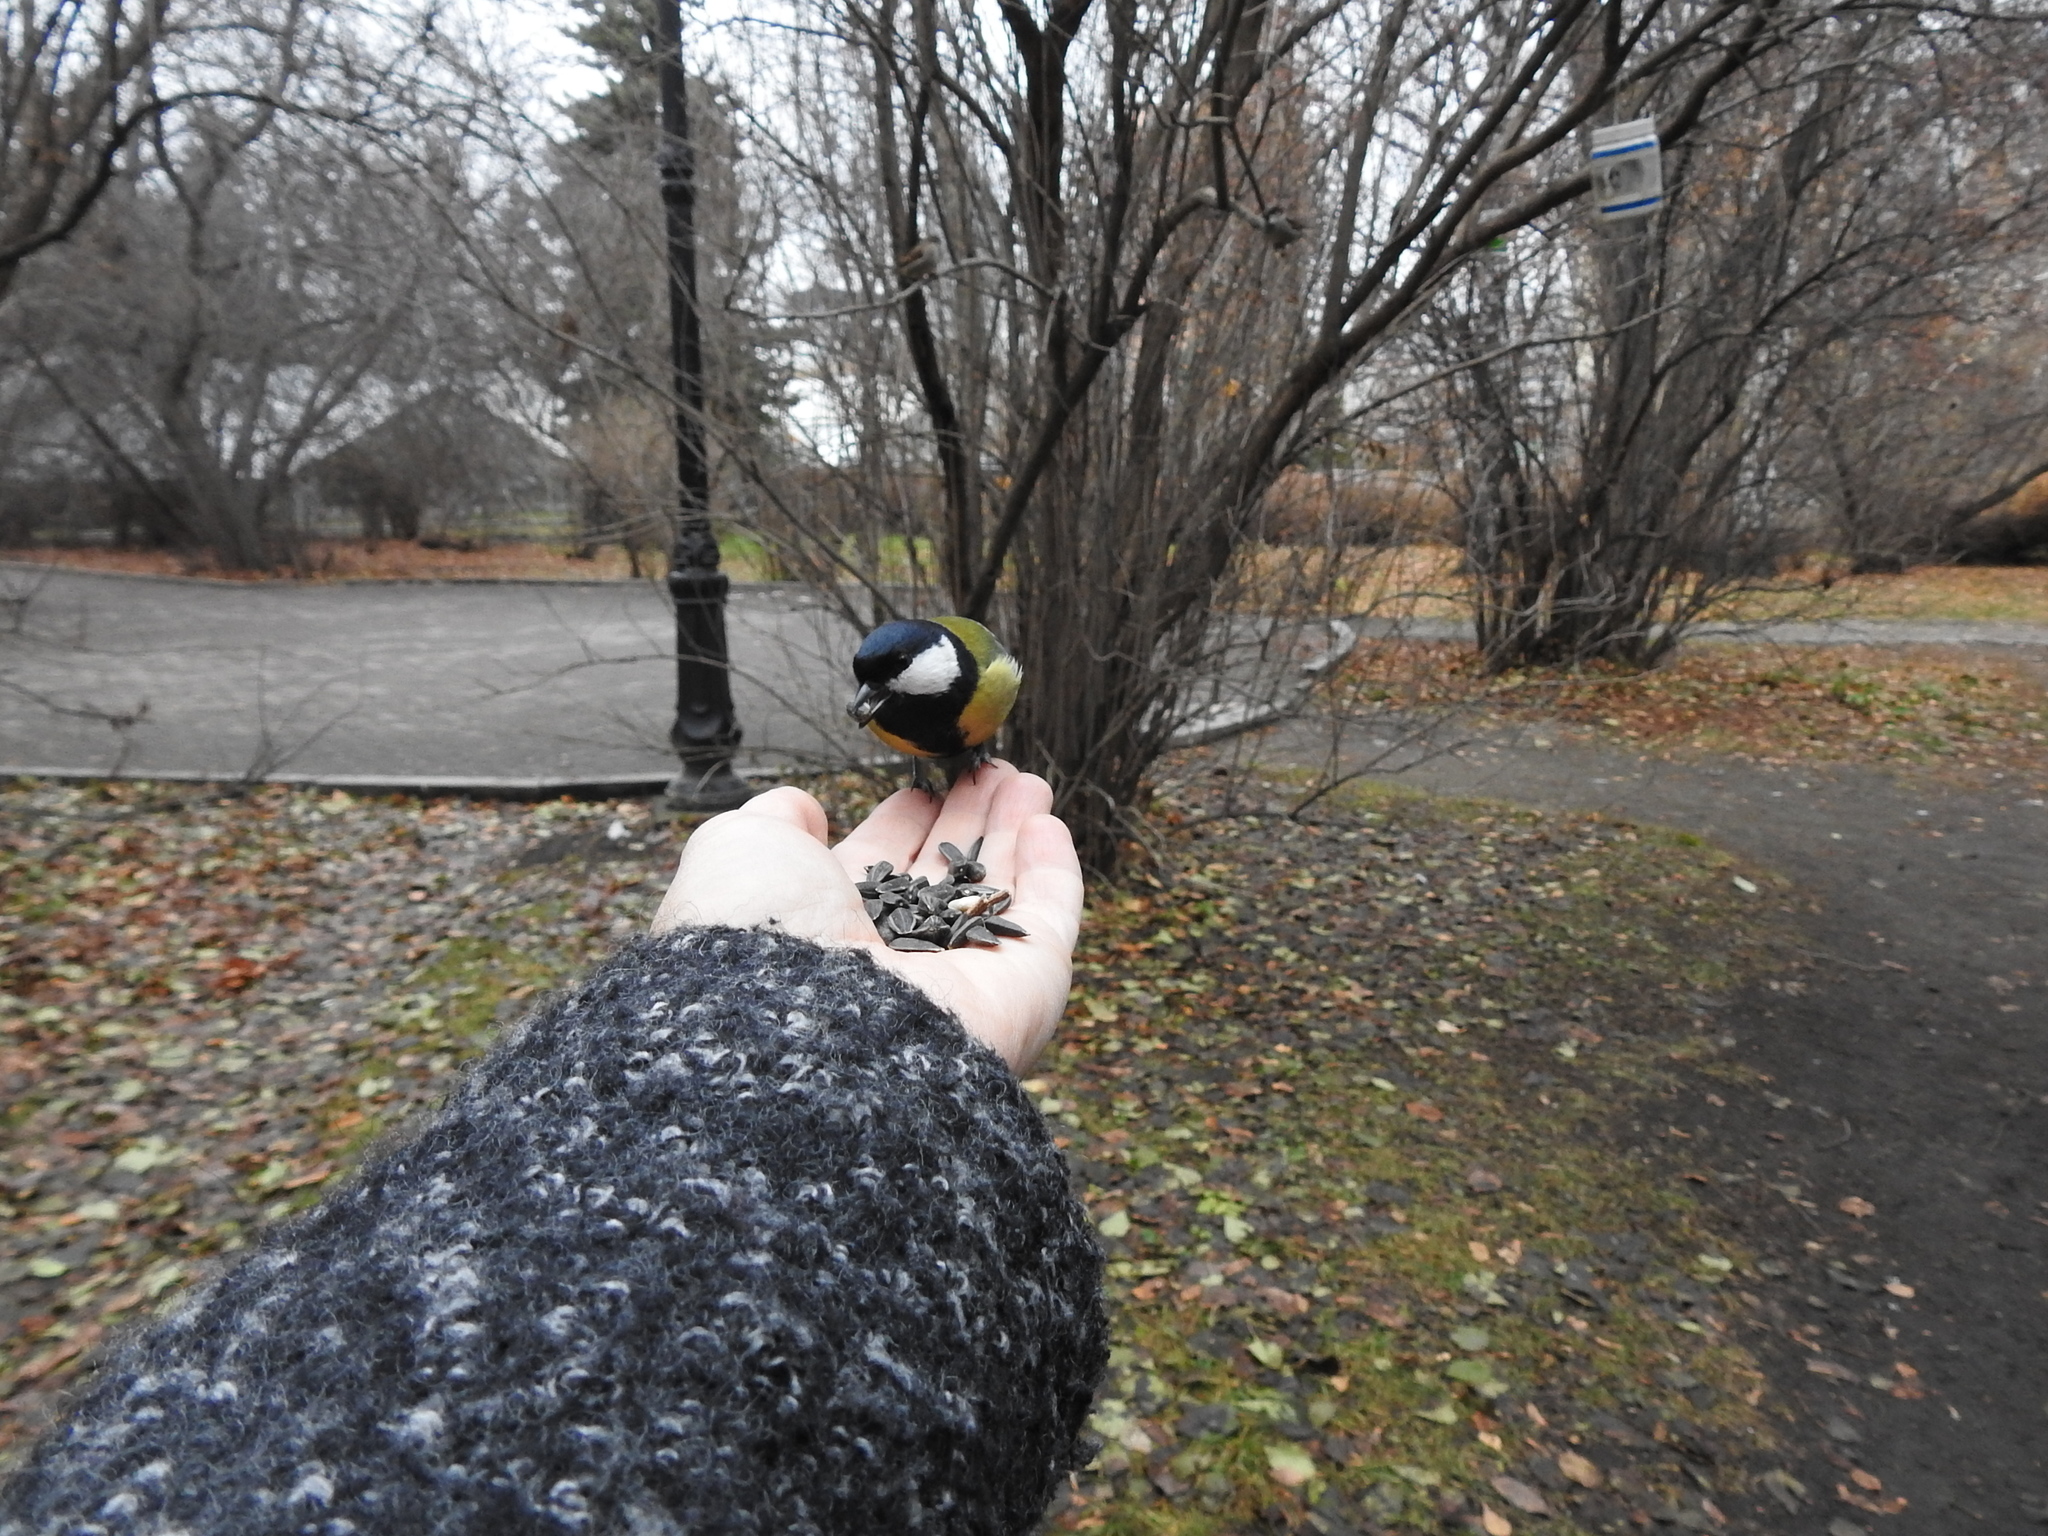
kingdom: Animalia
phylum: Chordata
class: Aves
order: Passeriformes
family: Paridae
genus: Parus
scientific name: Parus major
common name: Great tit
